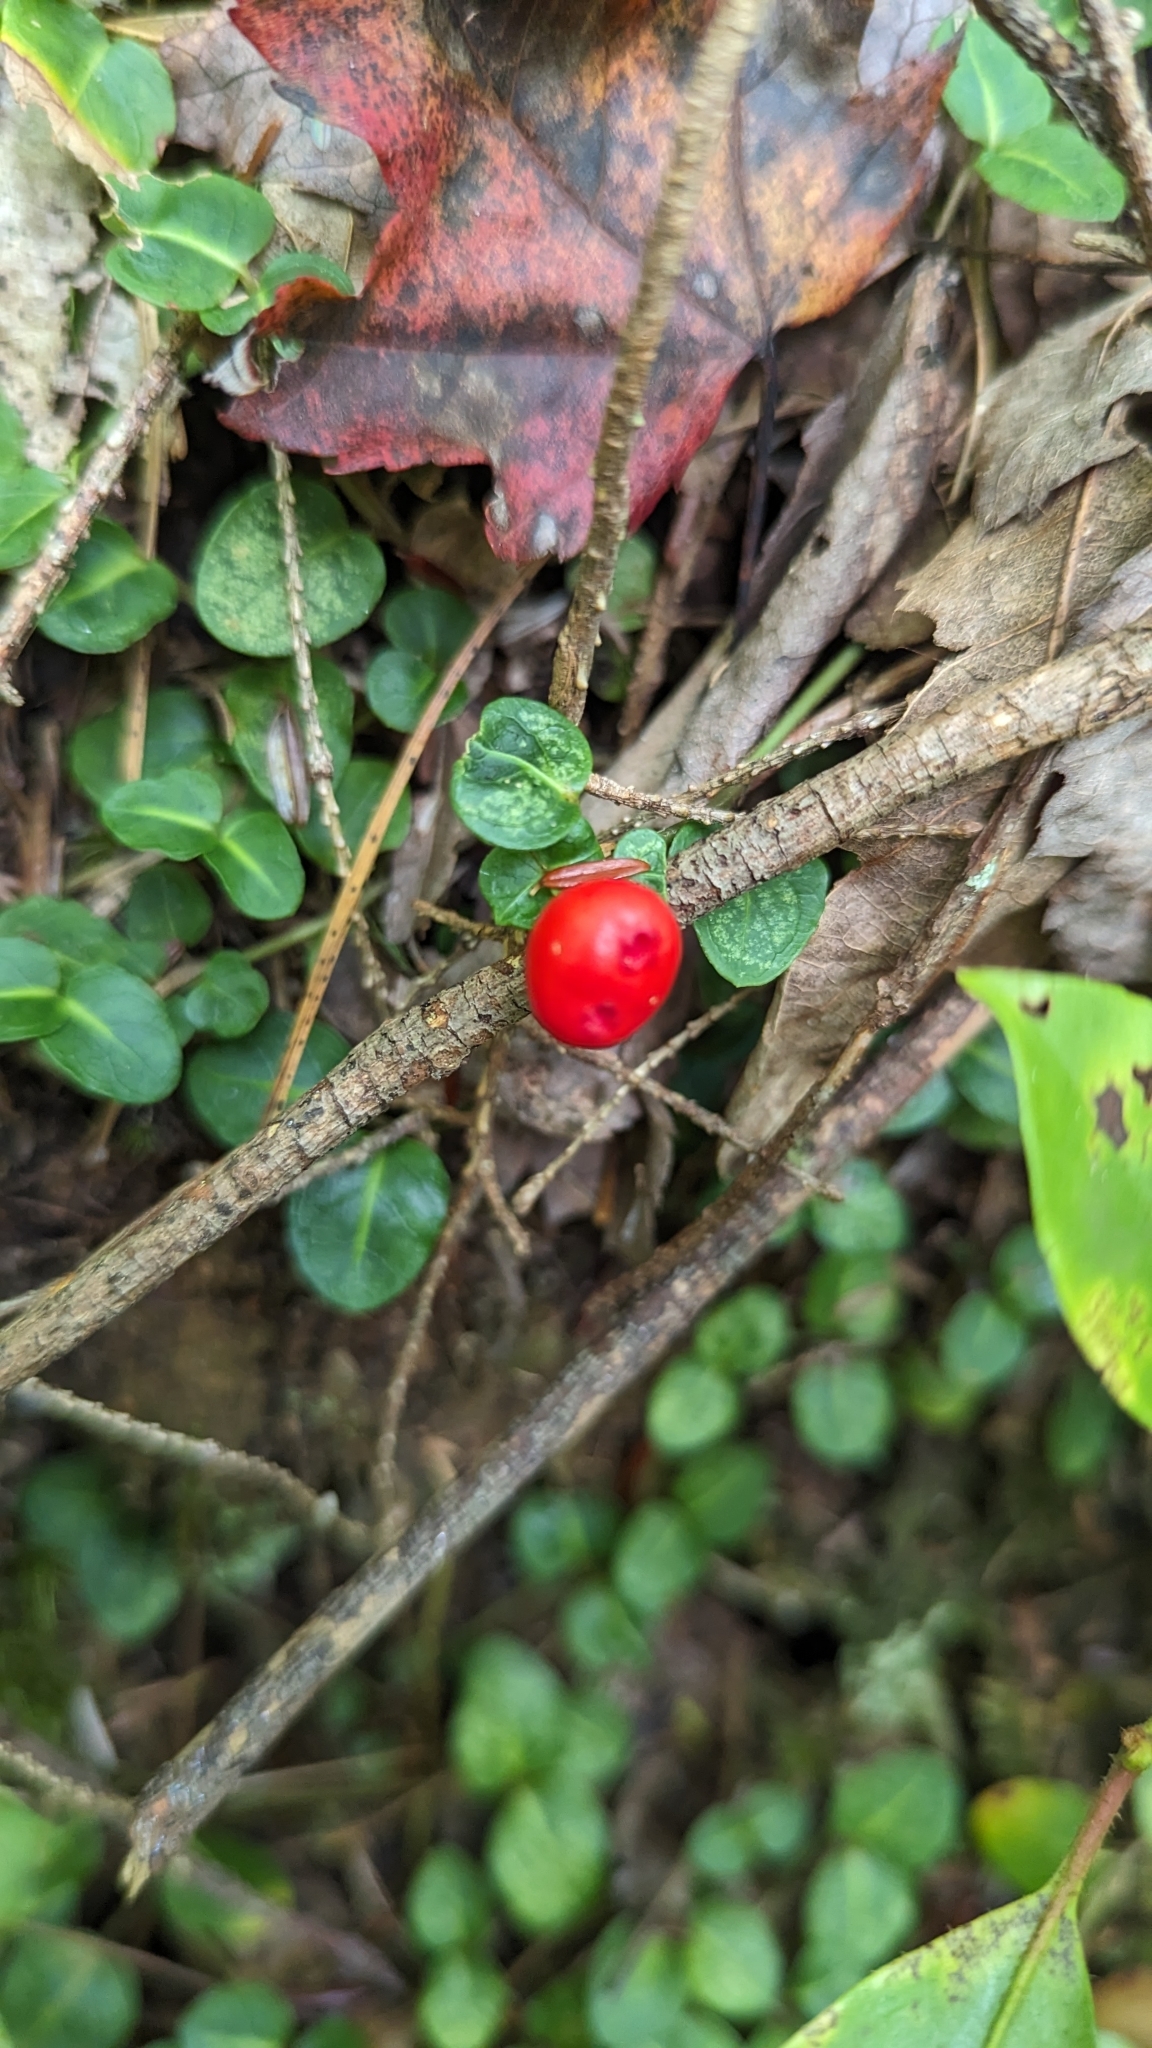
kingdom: Plantae
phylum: Tracheophyta
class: Magnoliopsida
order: Gentianales
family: Rubiaceae
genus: Mitchella
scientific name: Mitchella repens
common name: Partridge-berry
